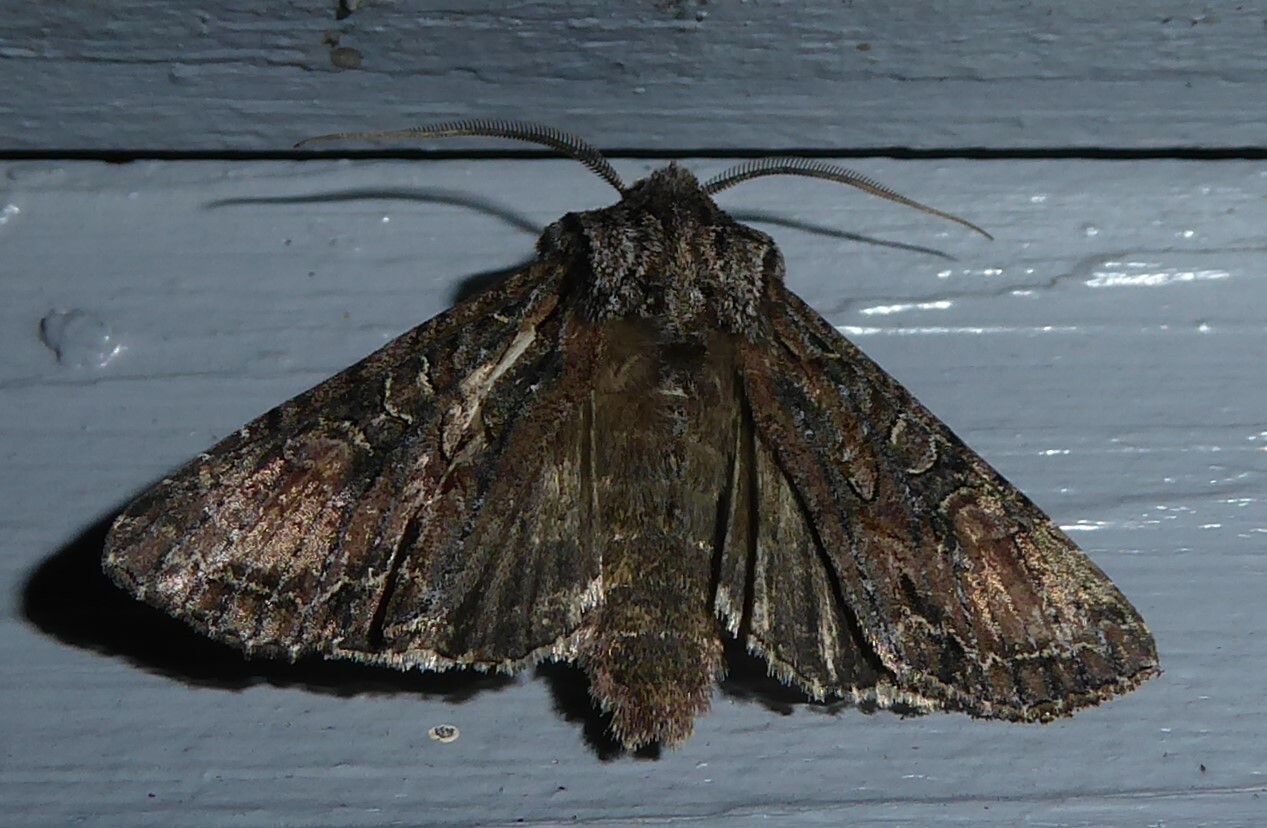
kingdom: Animalia
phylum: Arthropoda
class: Insecta
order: Lepidoptera
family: Noctuidae
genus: Ichneutica
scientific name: Ichneutica mutans
